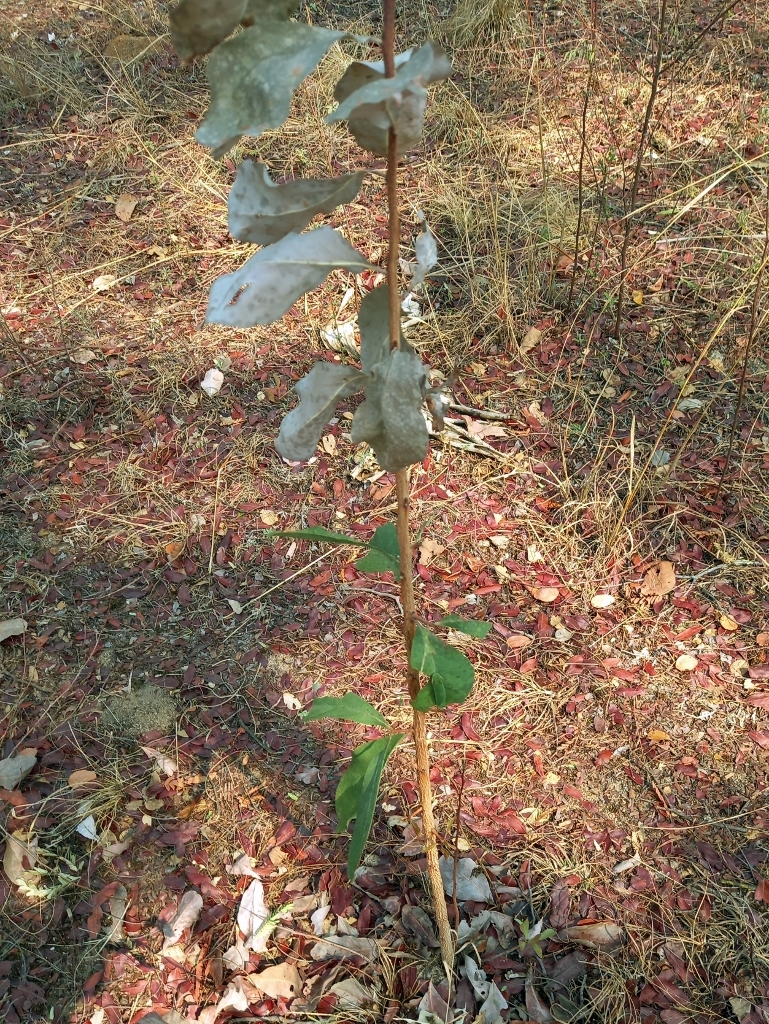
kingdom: Plantae
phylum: Tracheophyta
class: Magnoliopsida
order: Celastrales
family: Celastraceae
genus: Gymnosporia
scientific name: Gymnosporia senegalensis
